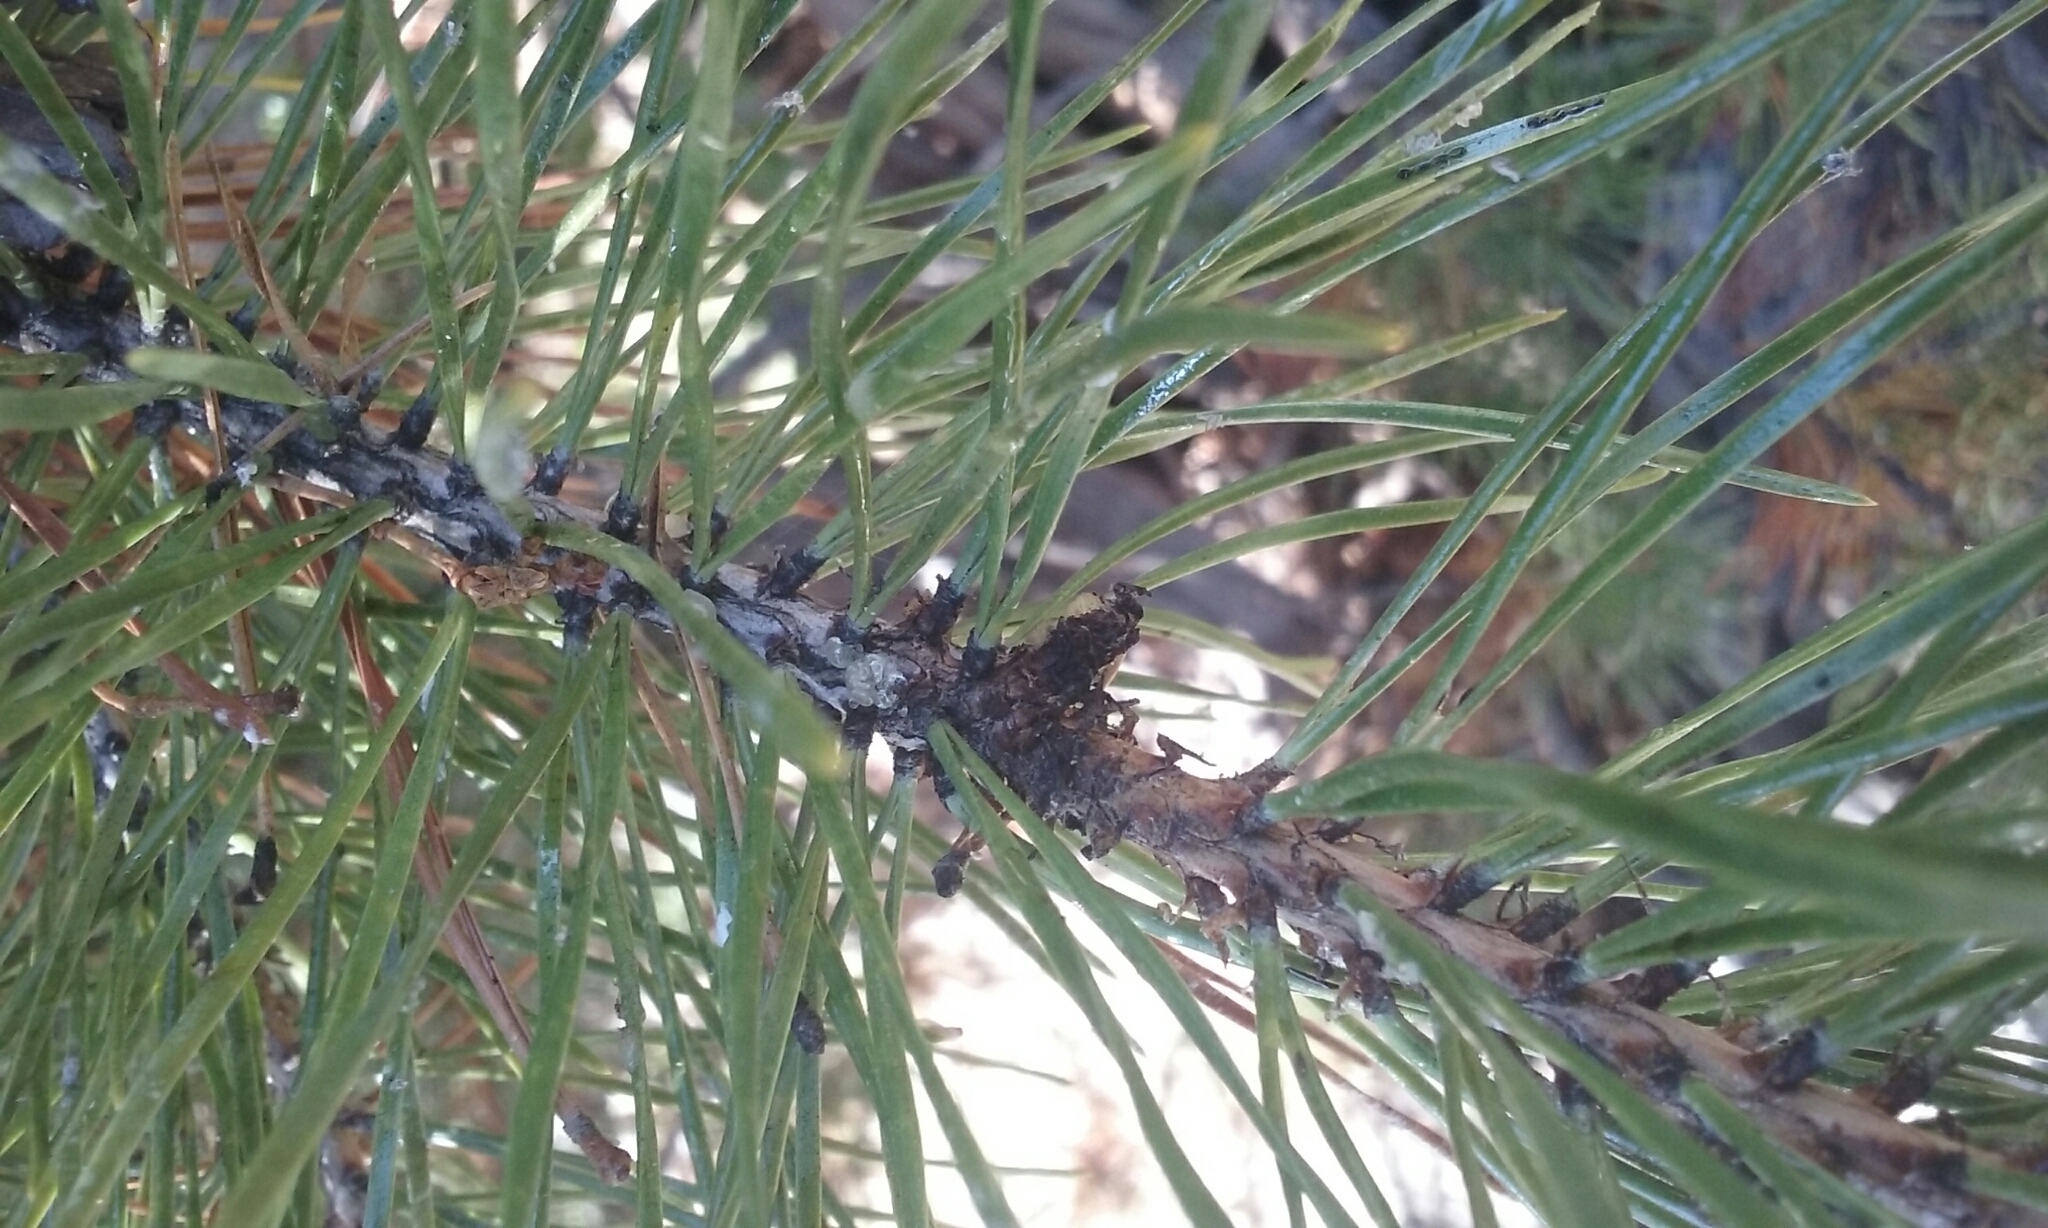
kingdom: Plantae
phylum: Tracheophyta
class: Pinopsida
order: Pinales
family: Pinaceae
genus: Pinus
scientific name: Pinus contorta
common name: Lodgepole pine
